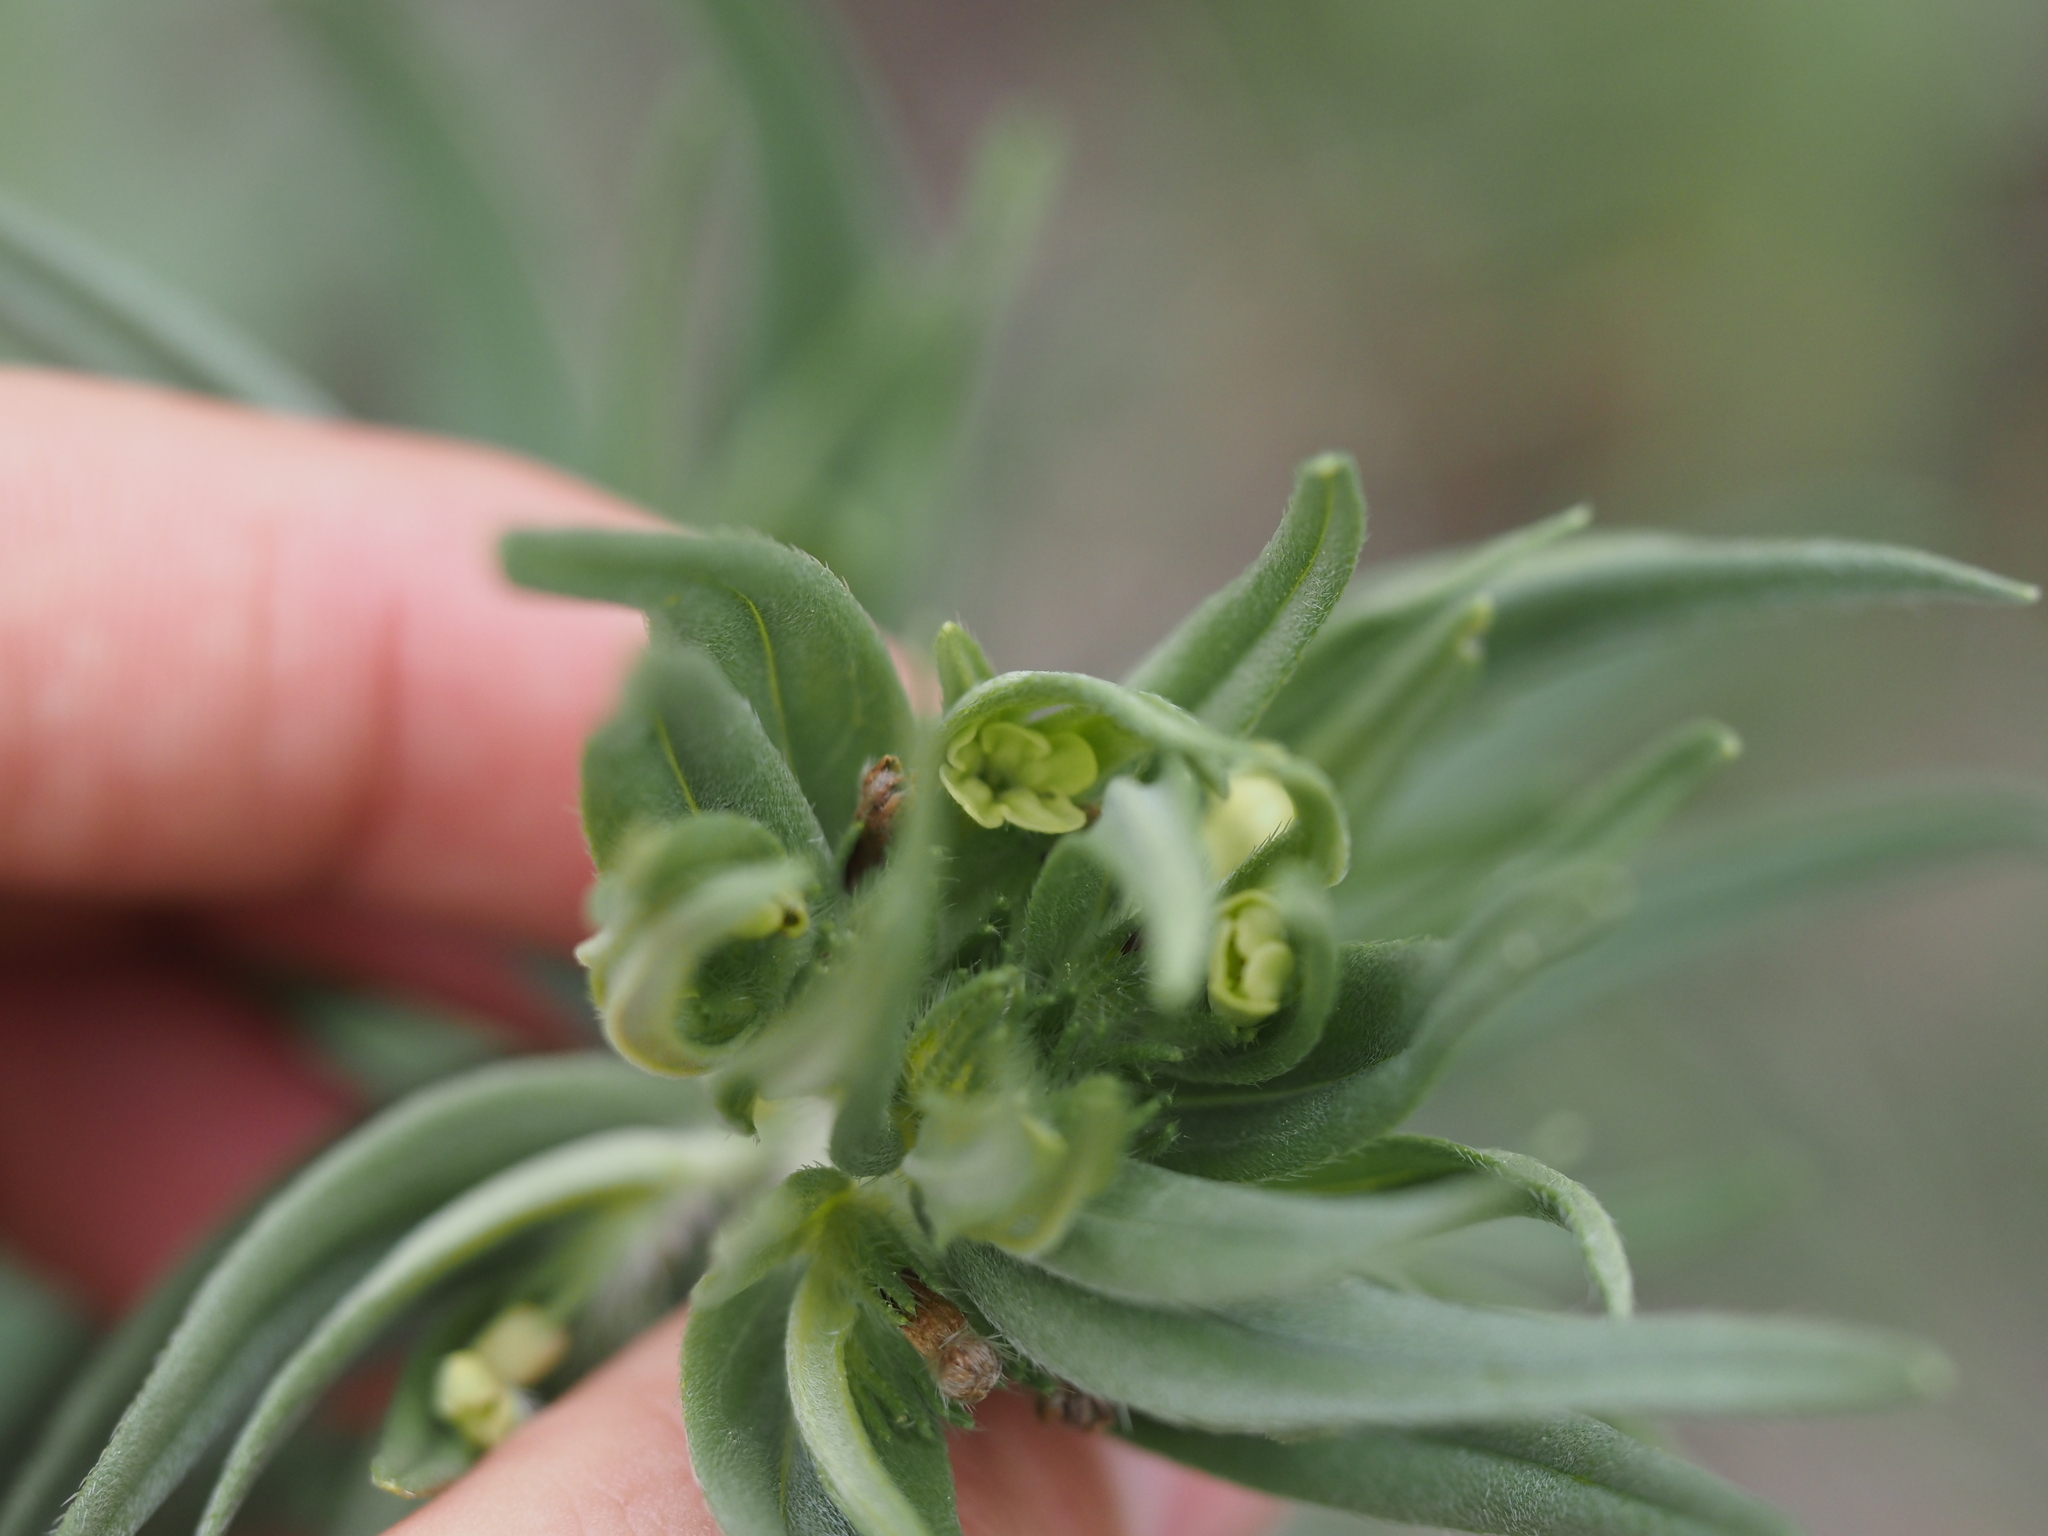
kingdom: Plantae
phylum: Tracheophyta
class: Magnoliopsida
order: Boraginales
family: Boraginaceae
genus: Lithospermum
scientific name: Lithospermum ruderale
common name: Western gromwell
